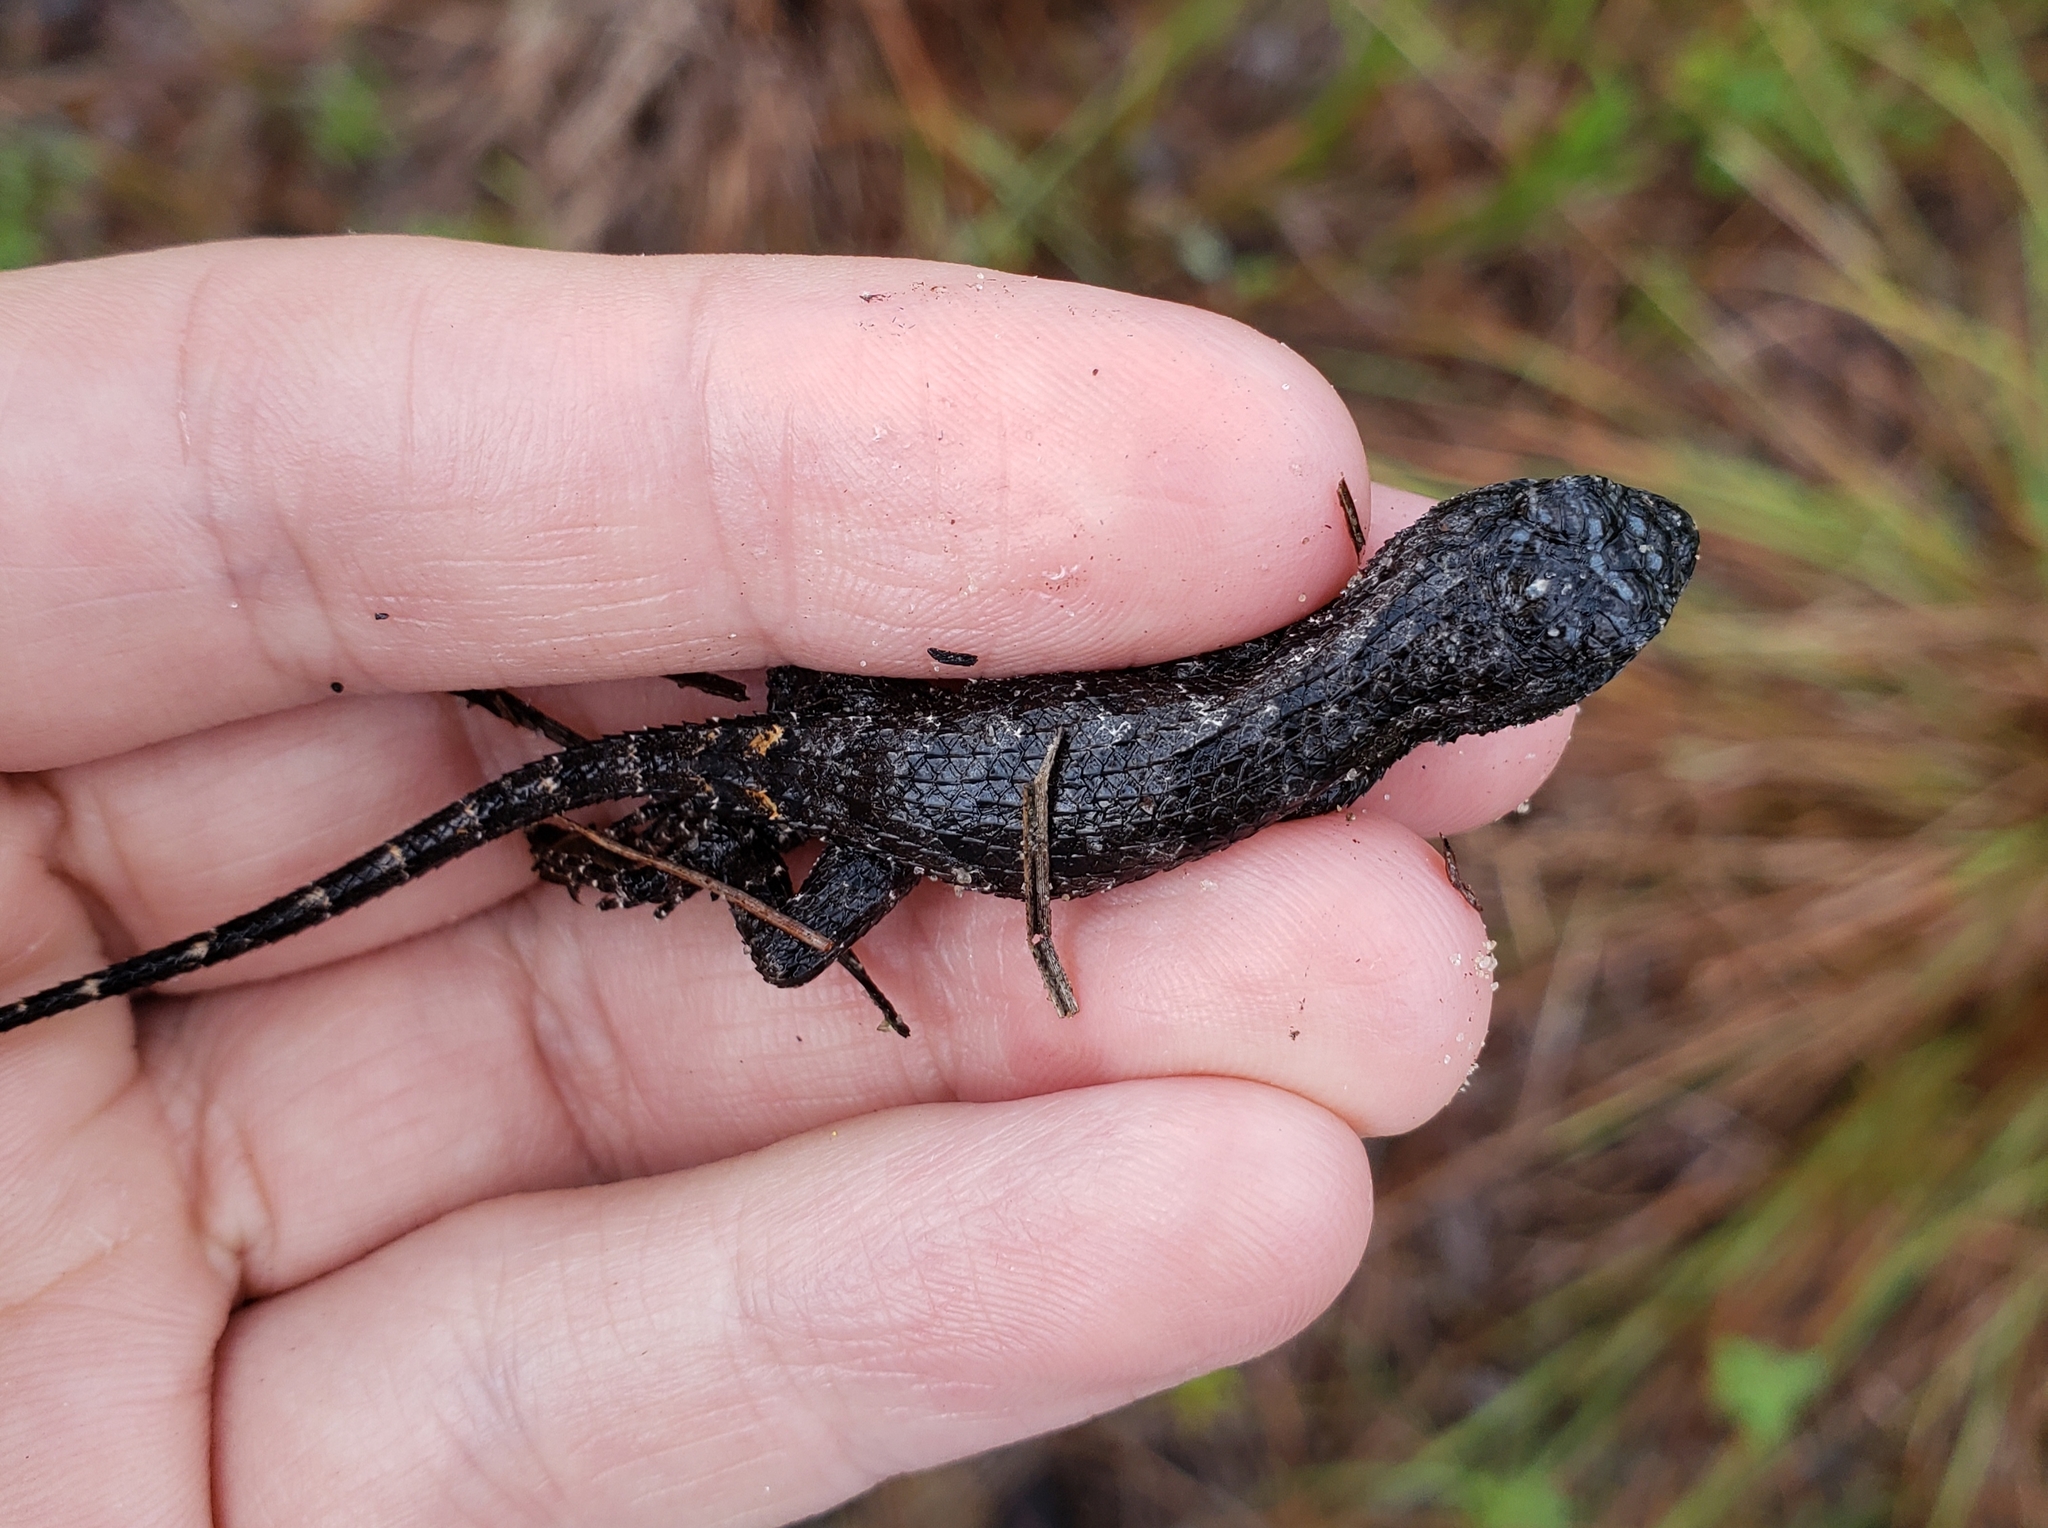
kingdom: Animalia
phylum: Chordata
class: Squamata
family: Phrynosomatidae
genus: Sceloporus
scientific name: Sceloporus undulatus
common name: Eastern fence lizard
